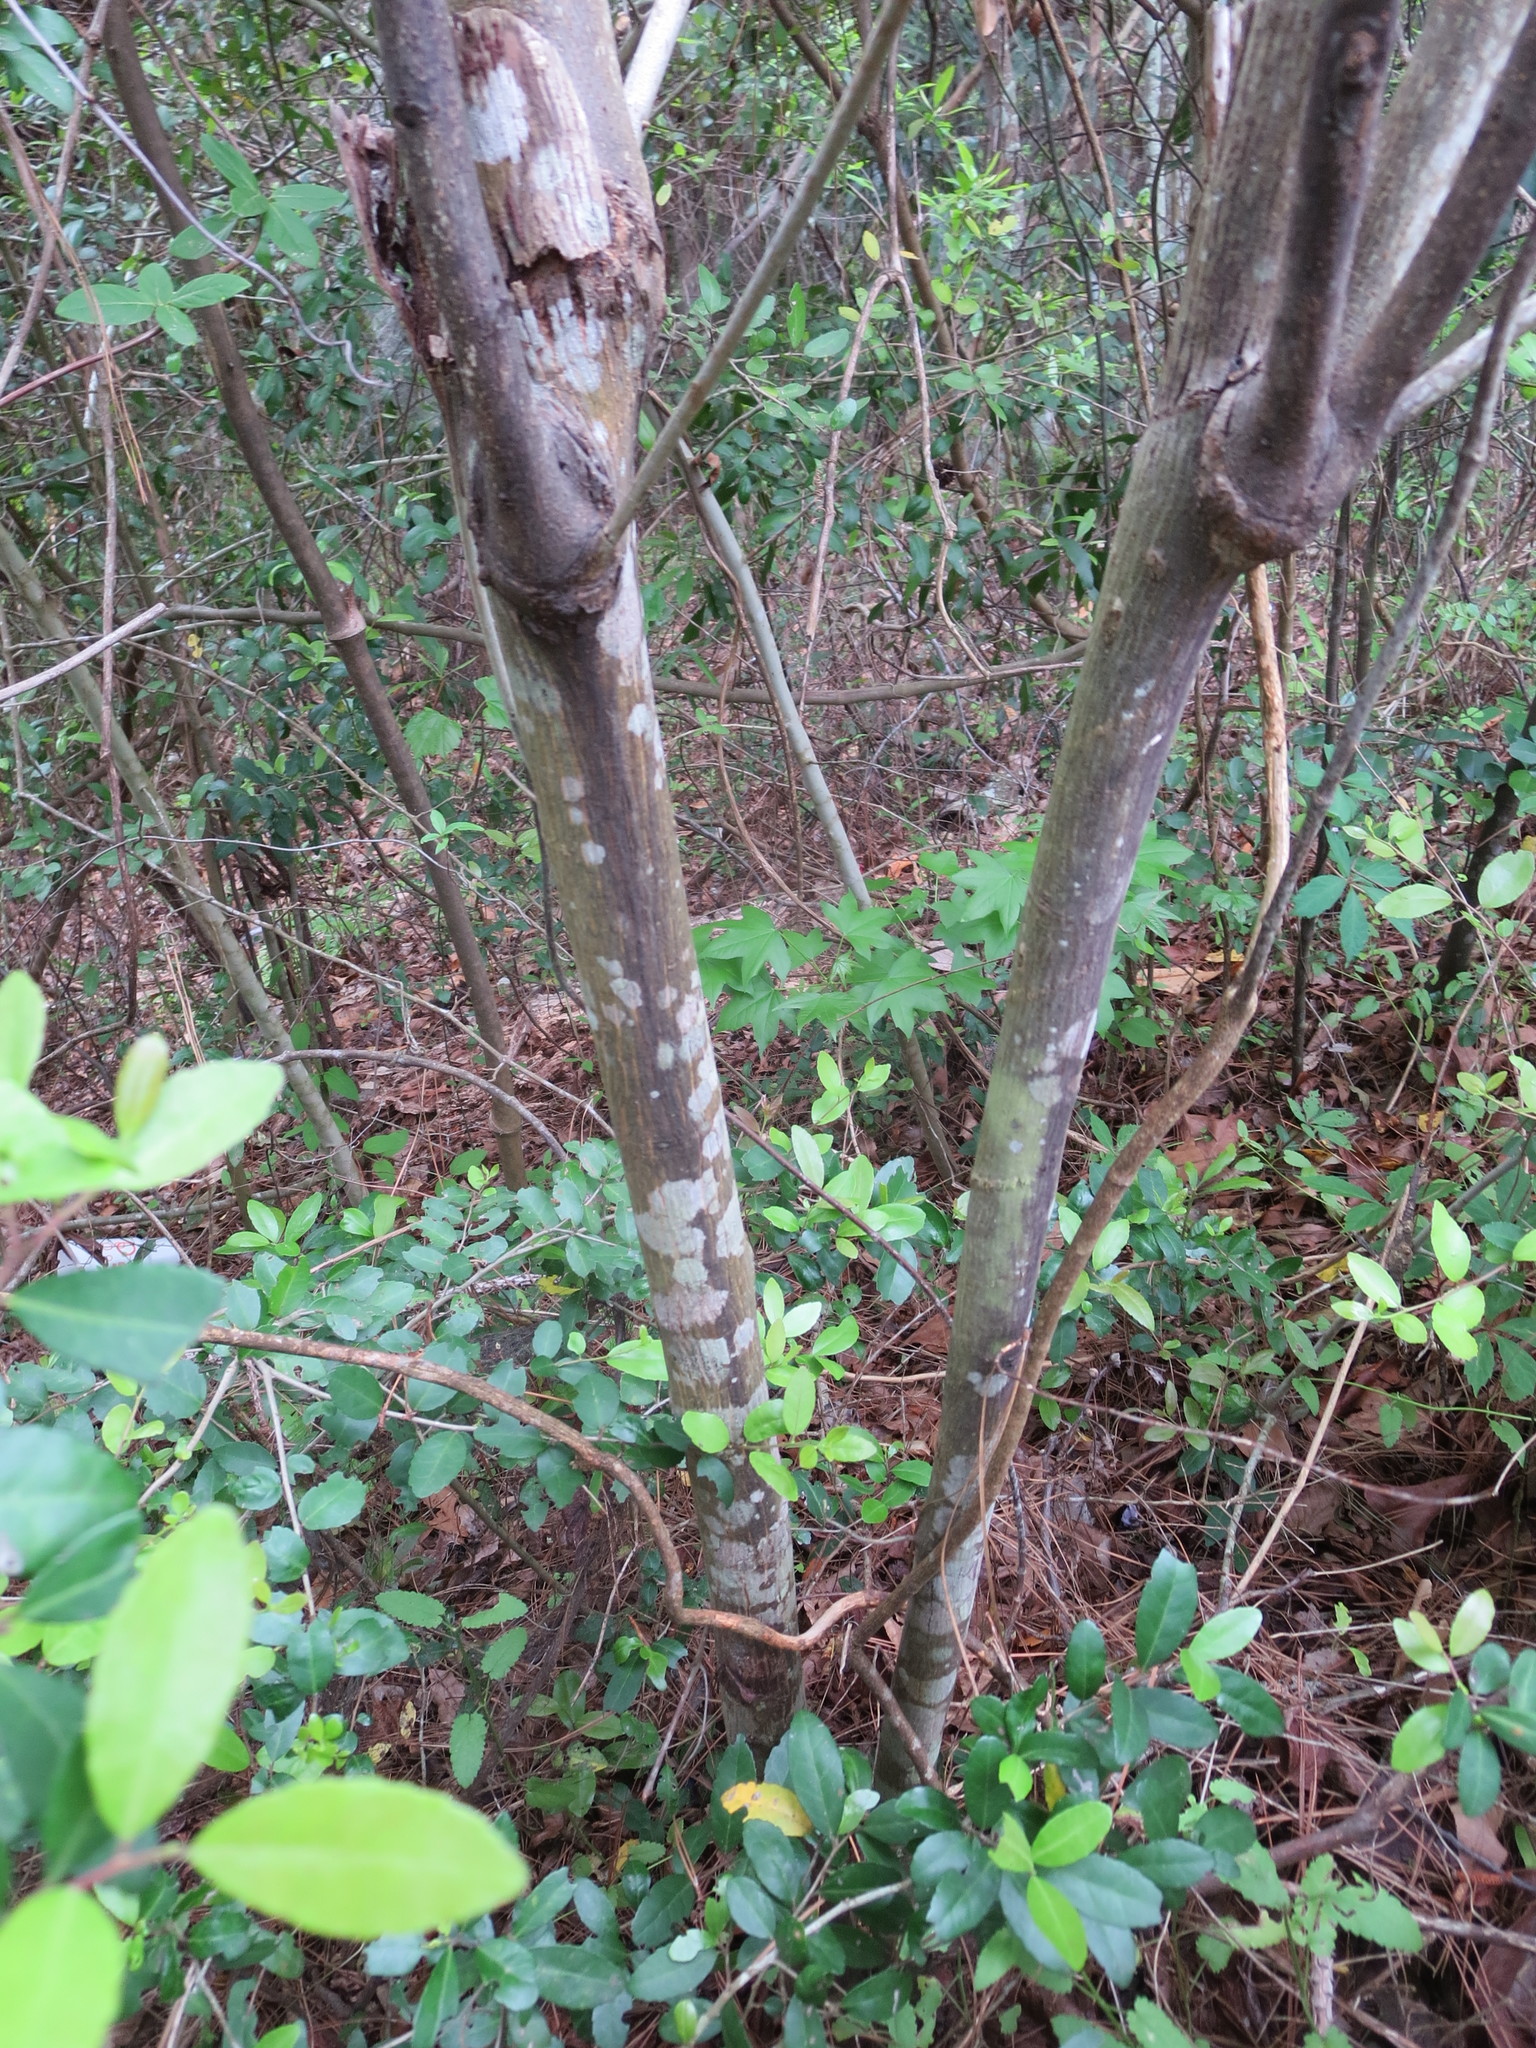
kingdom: Animalia
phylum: Arthropoda
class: Insecta
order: Hemiptera
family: Phylloxeridae
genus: Phylloxera
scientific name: Phylloxera caryaecaulis
